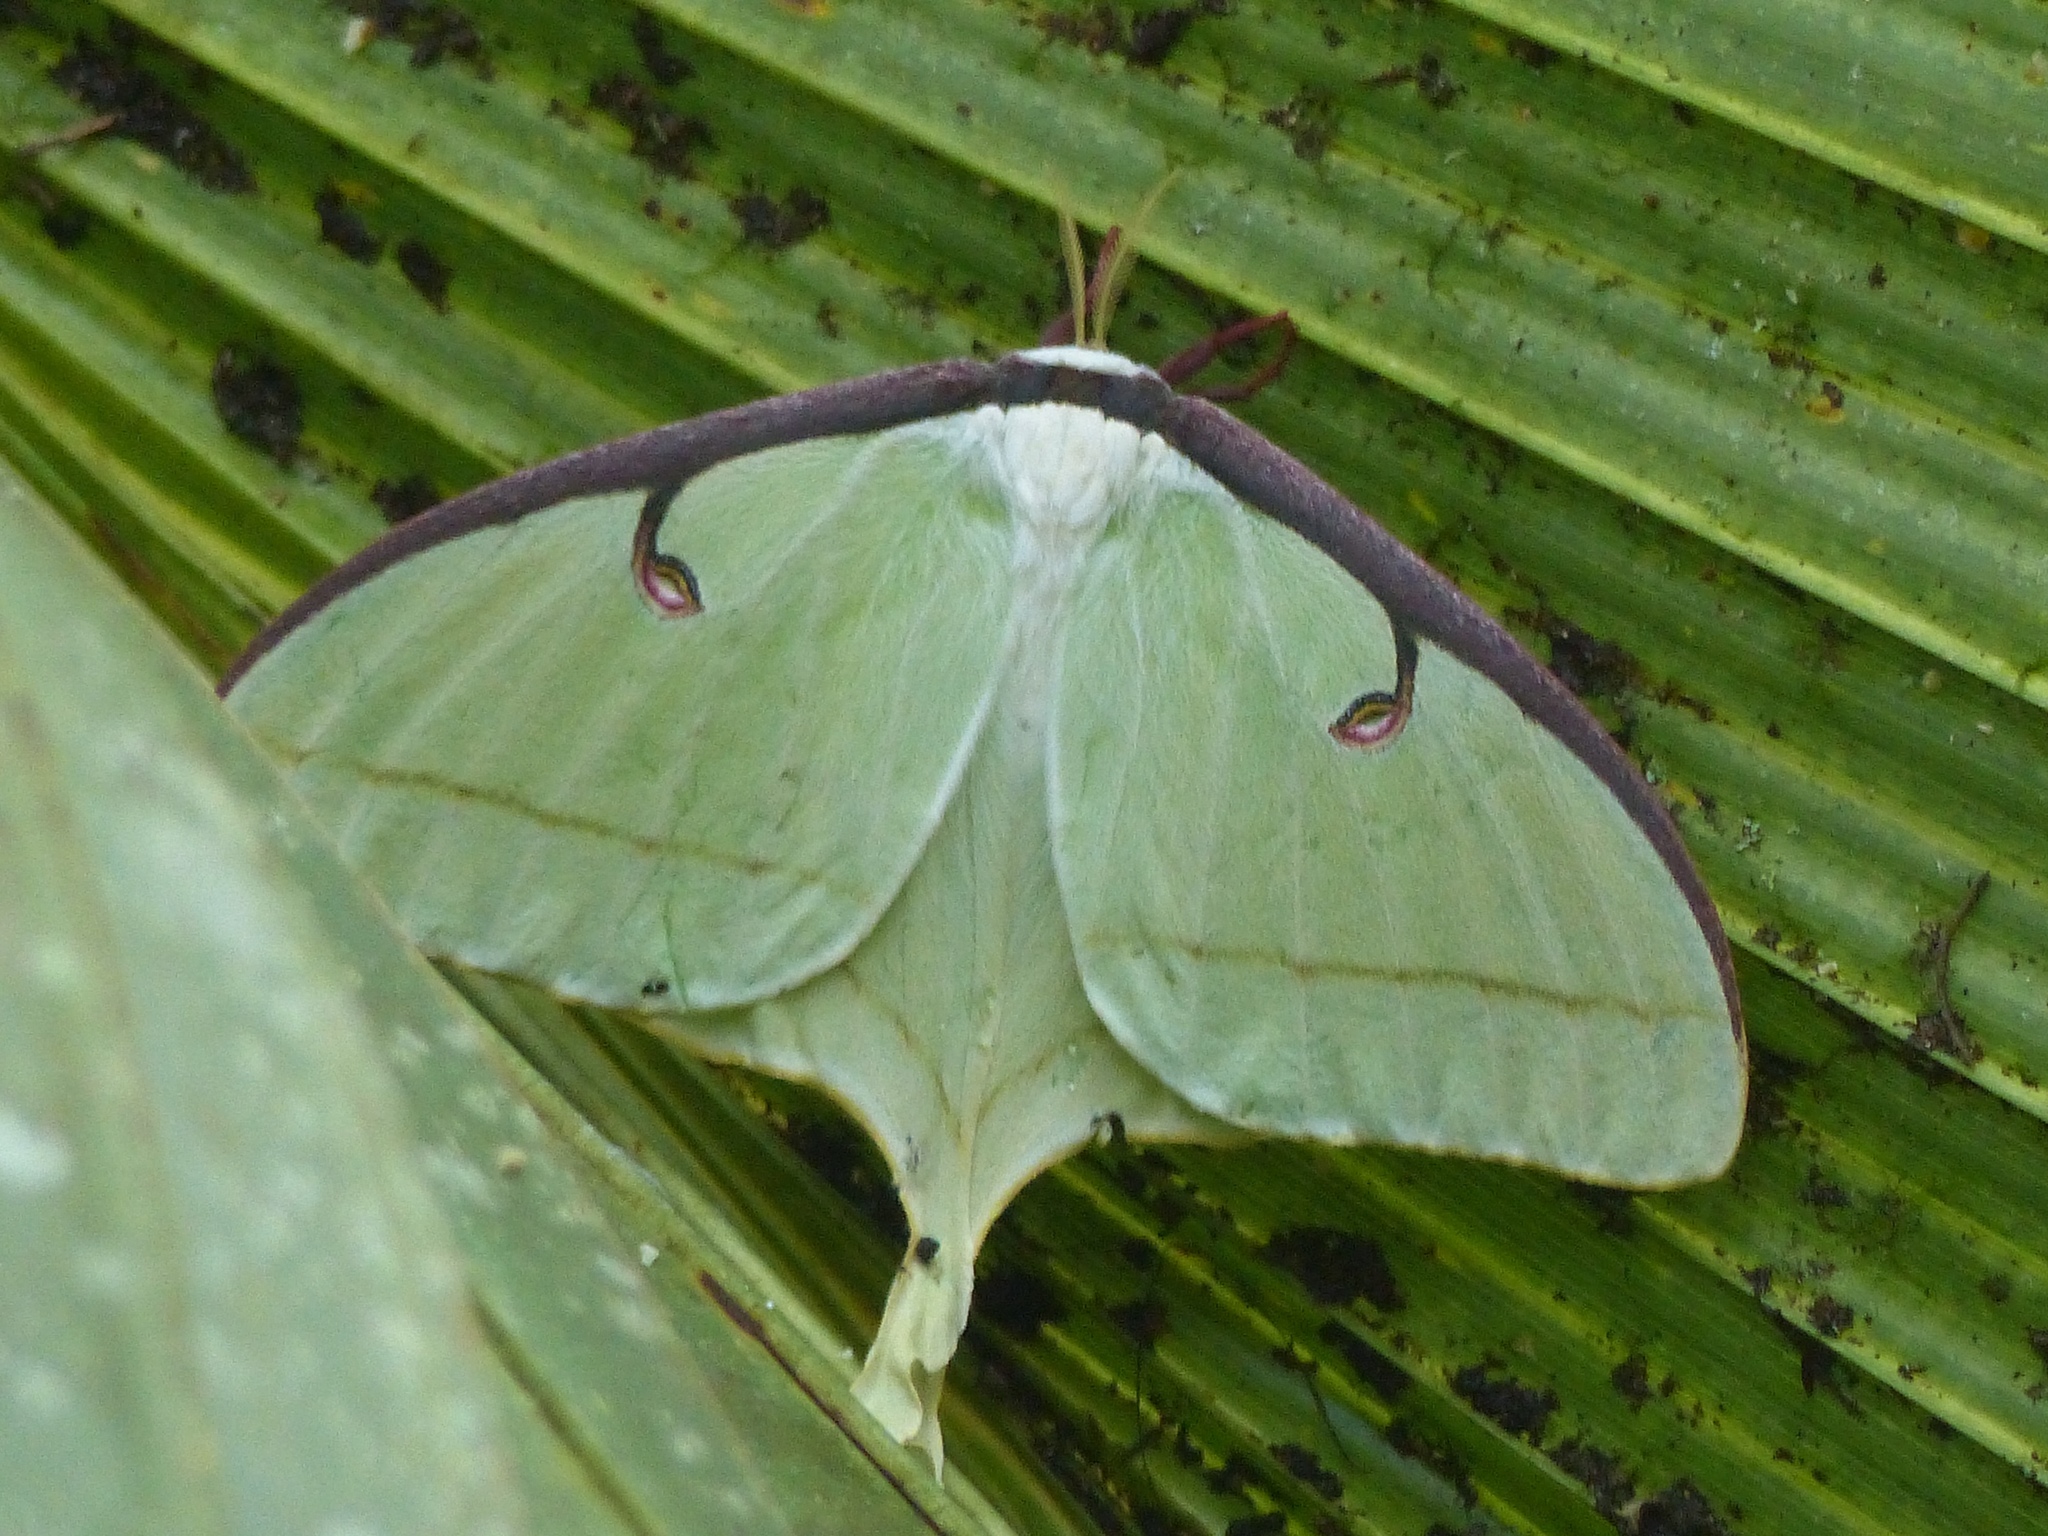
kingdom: Animalia
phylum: Arthropoda
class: Insecta
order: Lepidoptera
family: Saturniidae
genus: Actias
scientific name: Actias luna
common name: Luna moth
